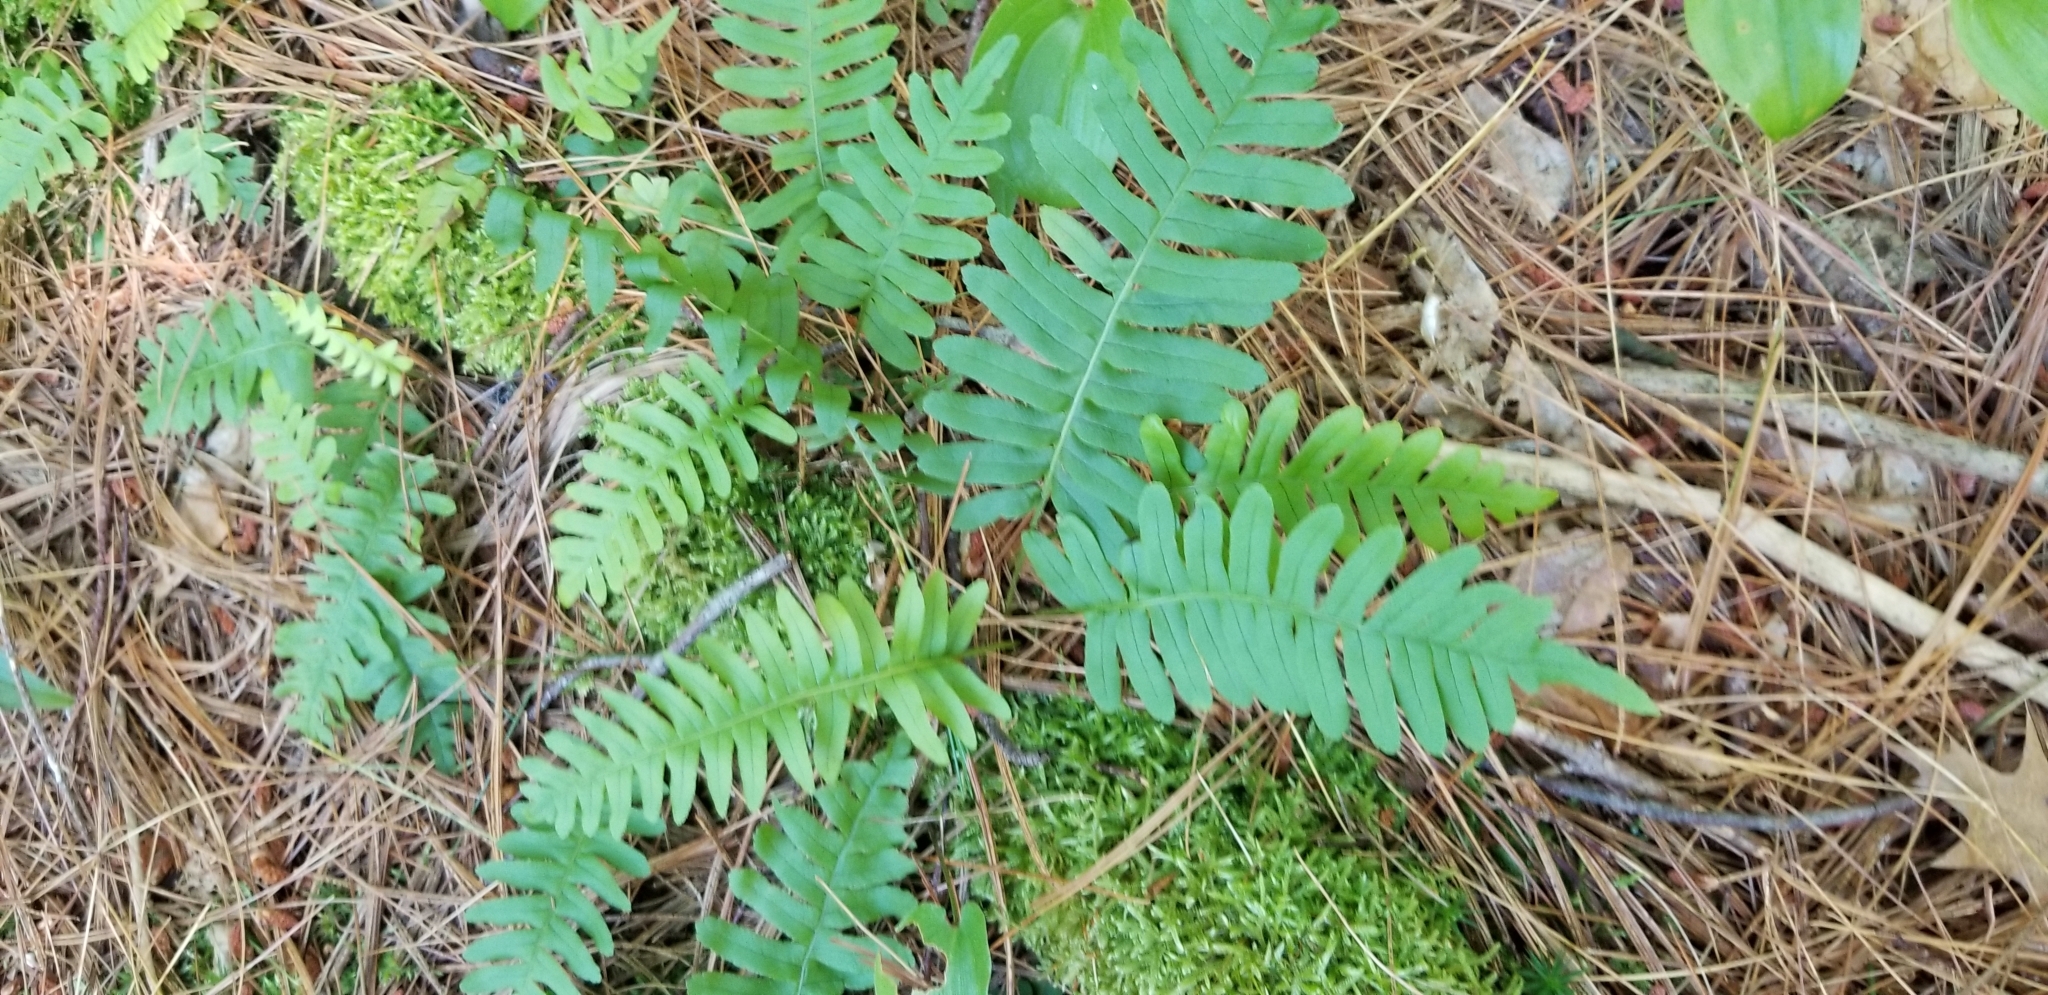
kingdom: Plantae
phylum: Tracheophyta
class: Polypodiopsida
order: Polypodiales
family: Polypodiaceae
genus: Polypodium
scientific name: Polypodium virginianum
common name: American wall fern
